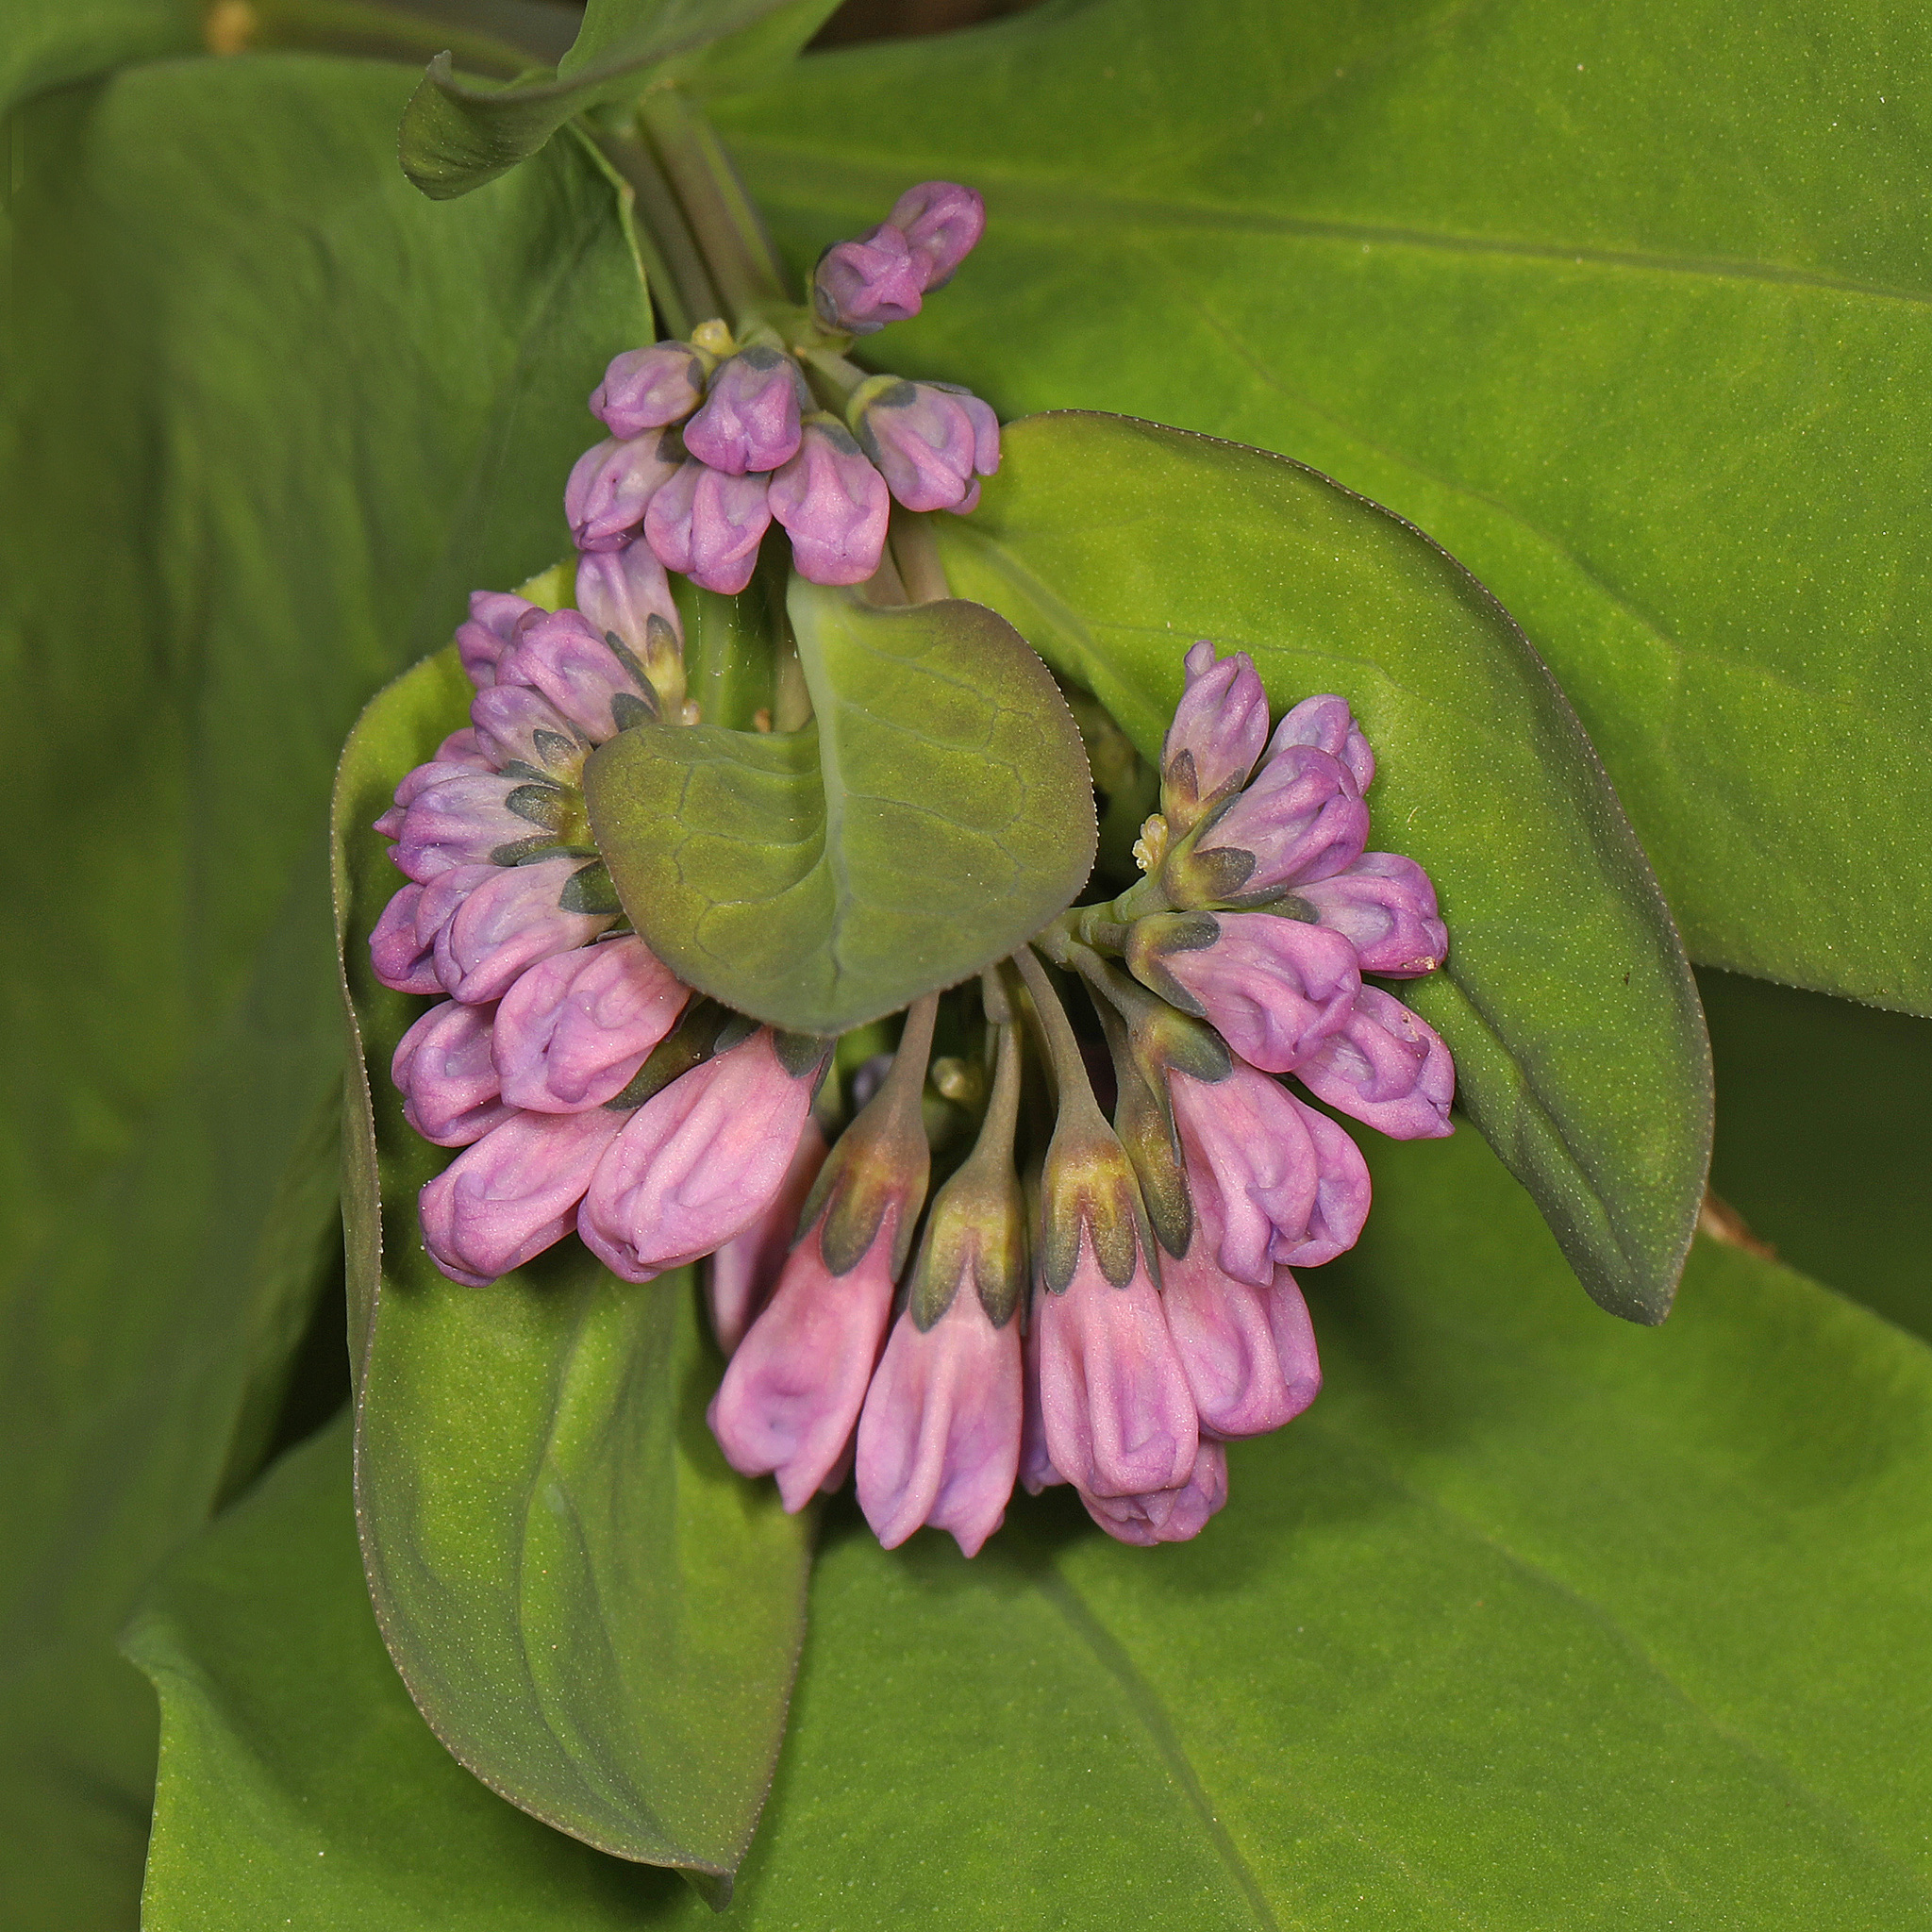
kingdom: Plantae
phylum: Tracheophyta
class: Magnoliopsida
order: Boraginales
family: Boraginaceae
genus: Mertensia
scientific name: Mertensia virginica
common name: Virginia bluebells
